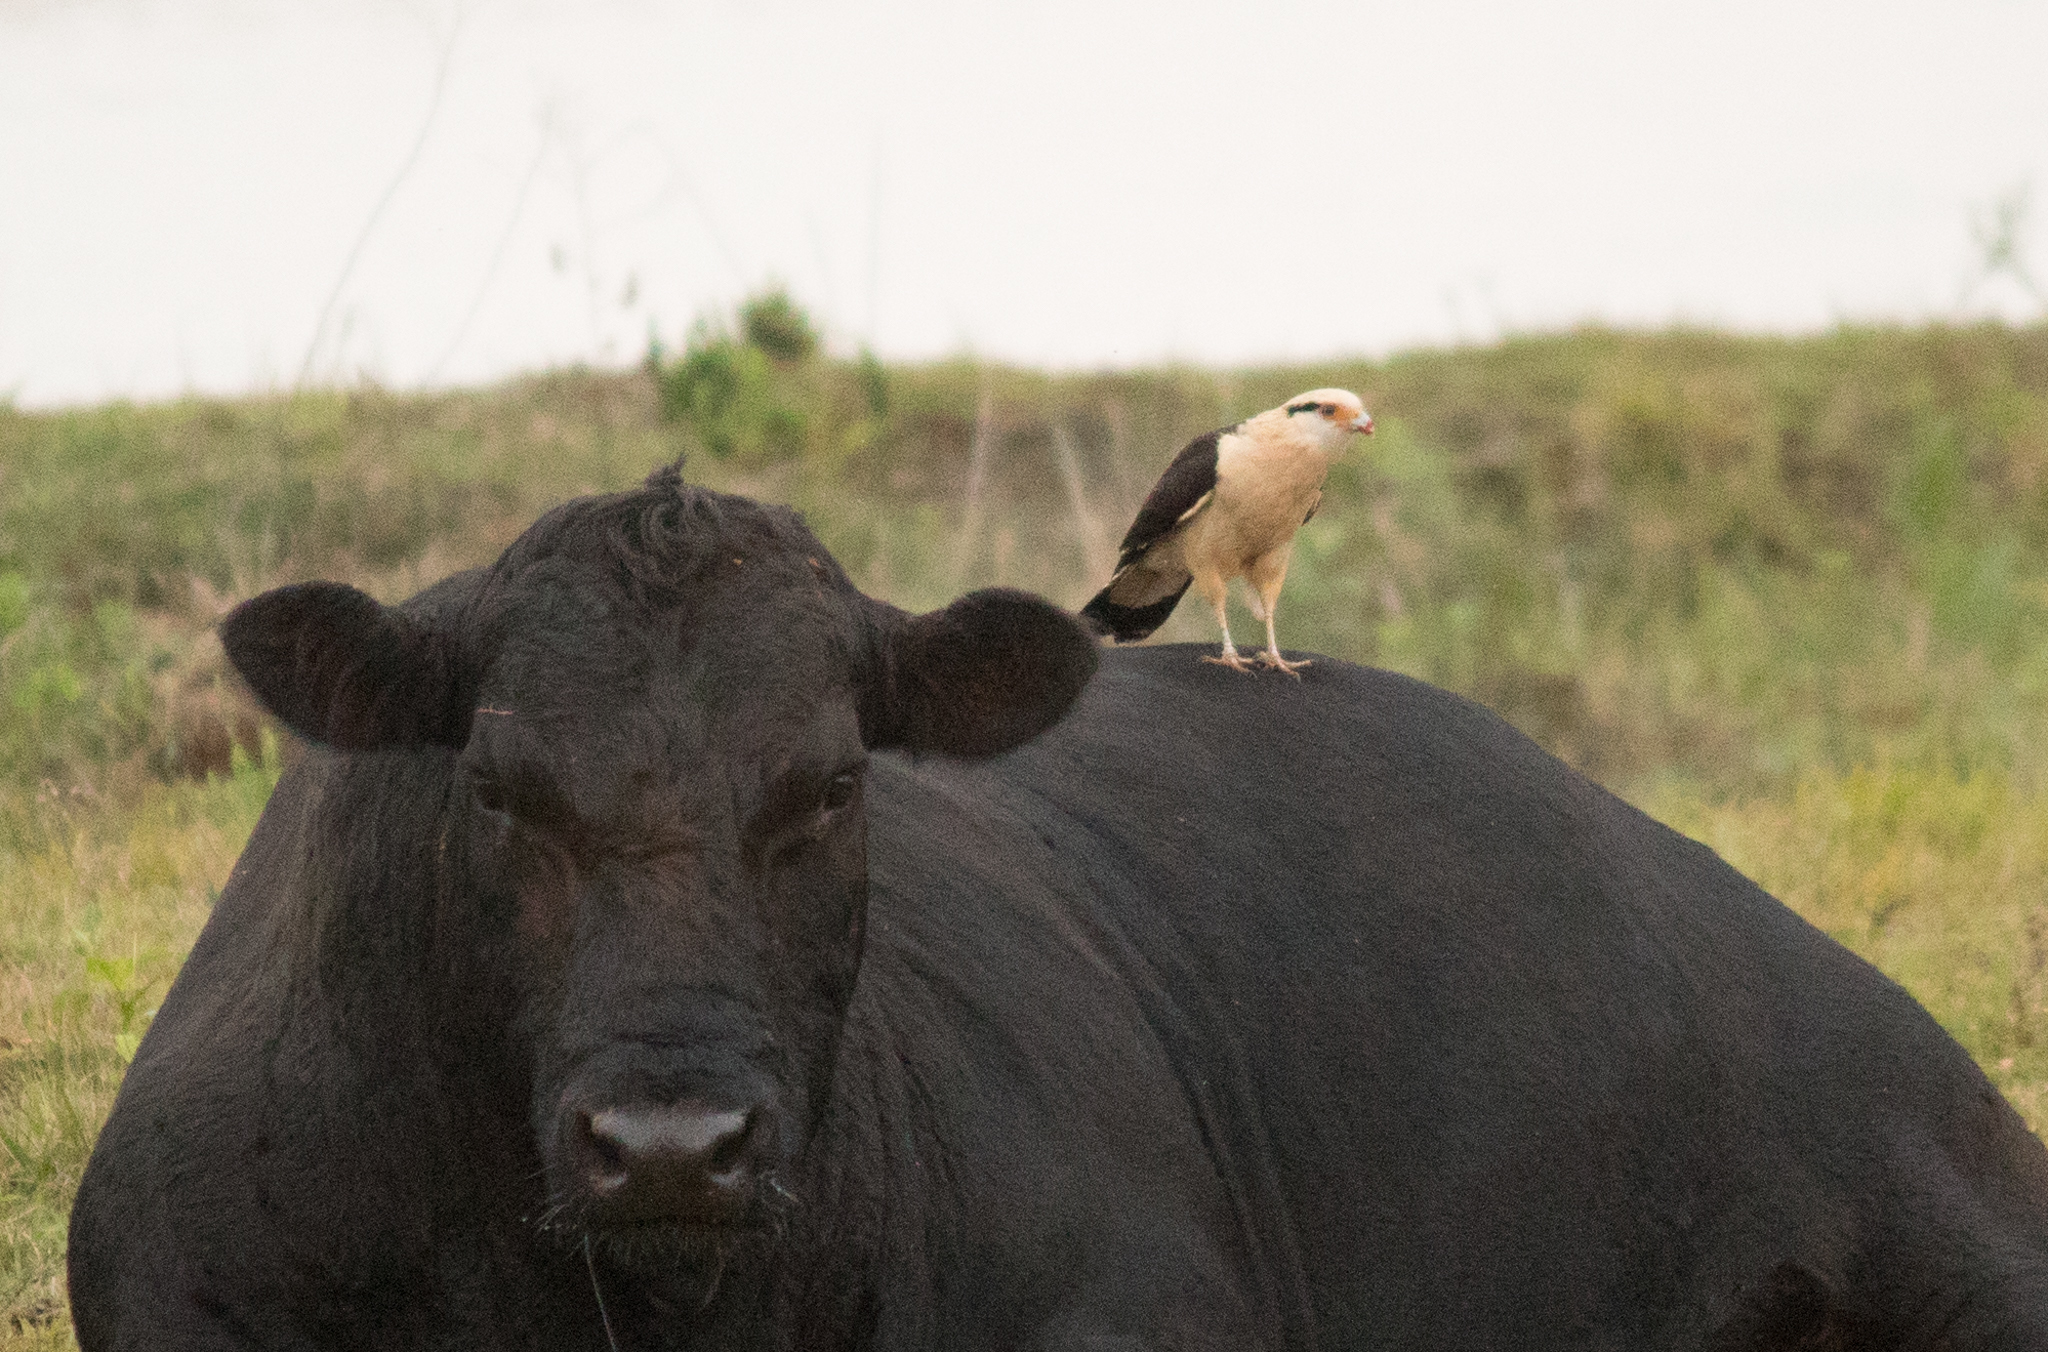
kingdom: Animalia
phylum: Chordata
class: Aves
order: Falconiformes
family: Falconidae
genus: Daptrius
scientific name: Daptrius
